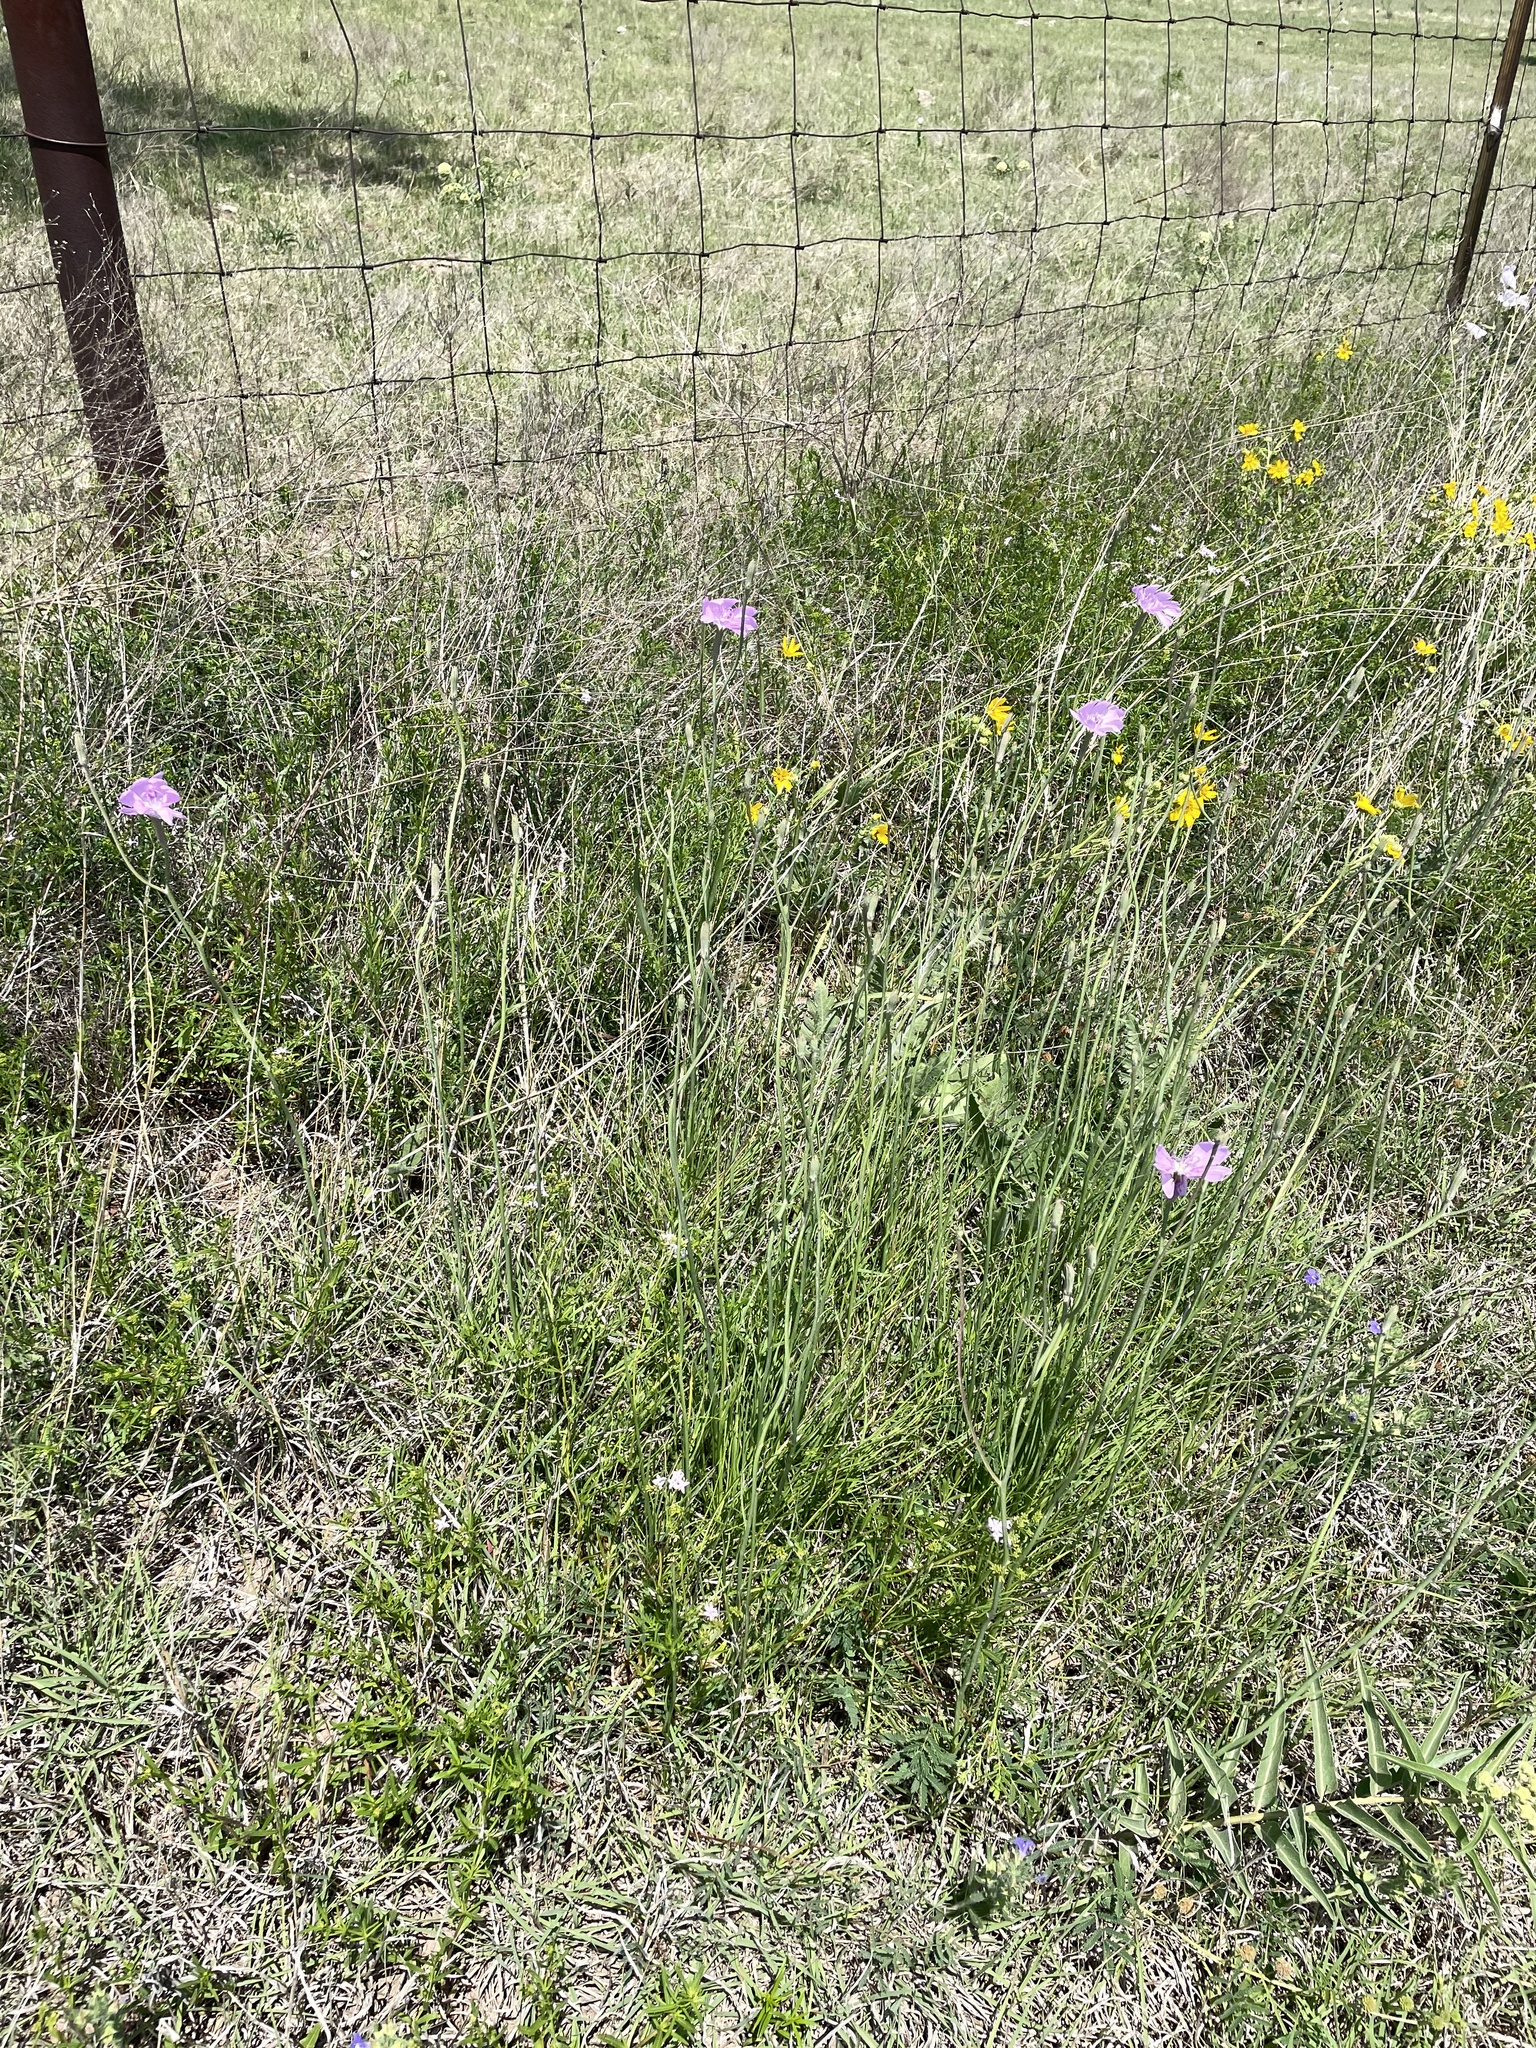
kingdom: Plantae
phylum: Tracheophyta
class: Magnoliopsida
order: Asterales
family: Asteraceae
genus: Lygodesmia
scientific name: Lygodesmia texana
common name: Texas skeleton-plant
